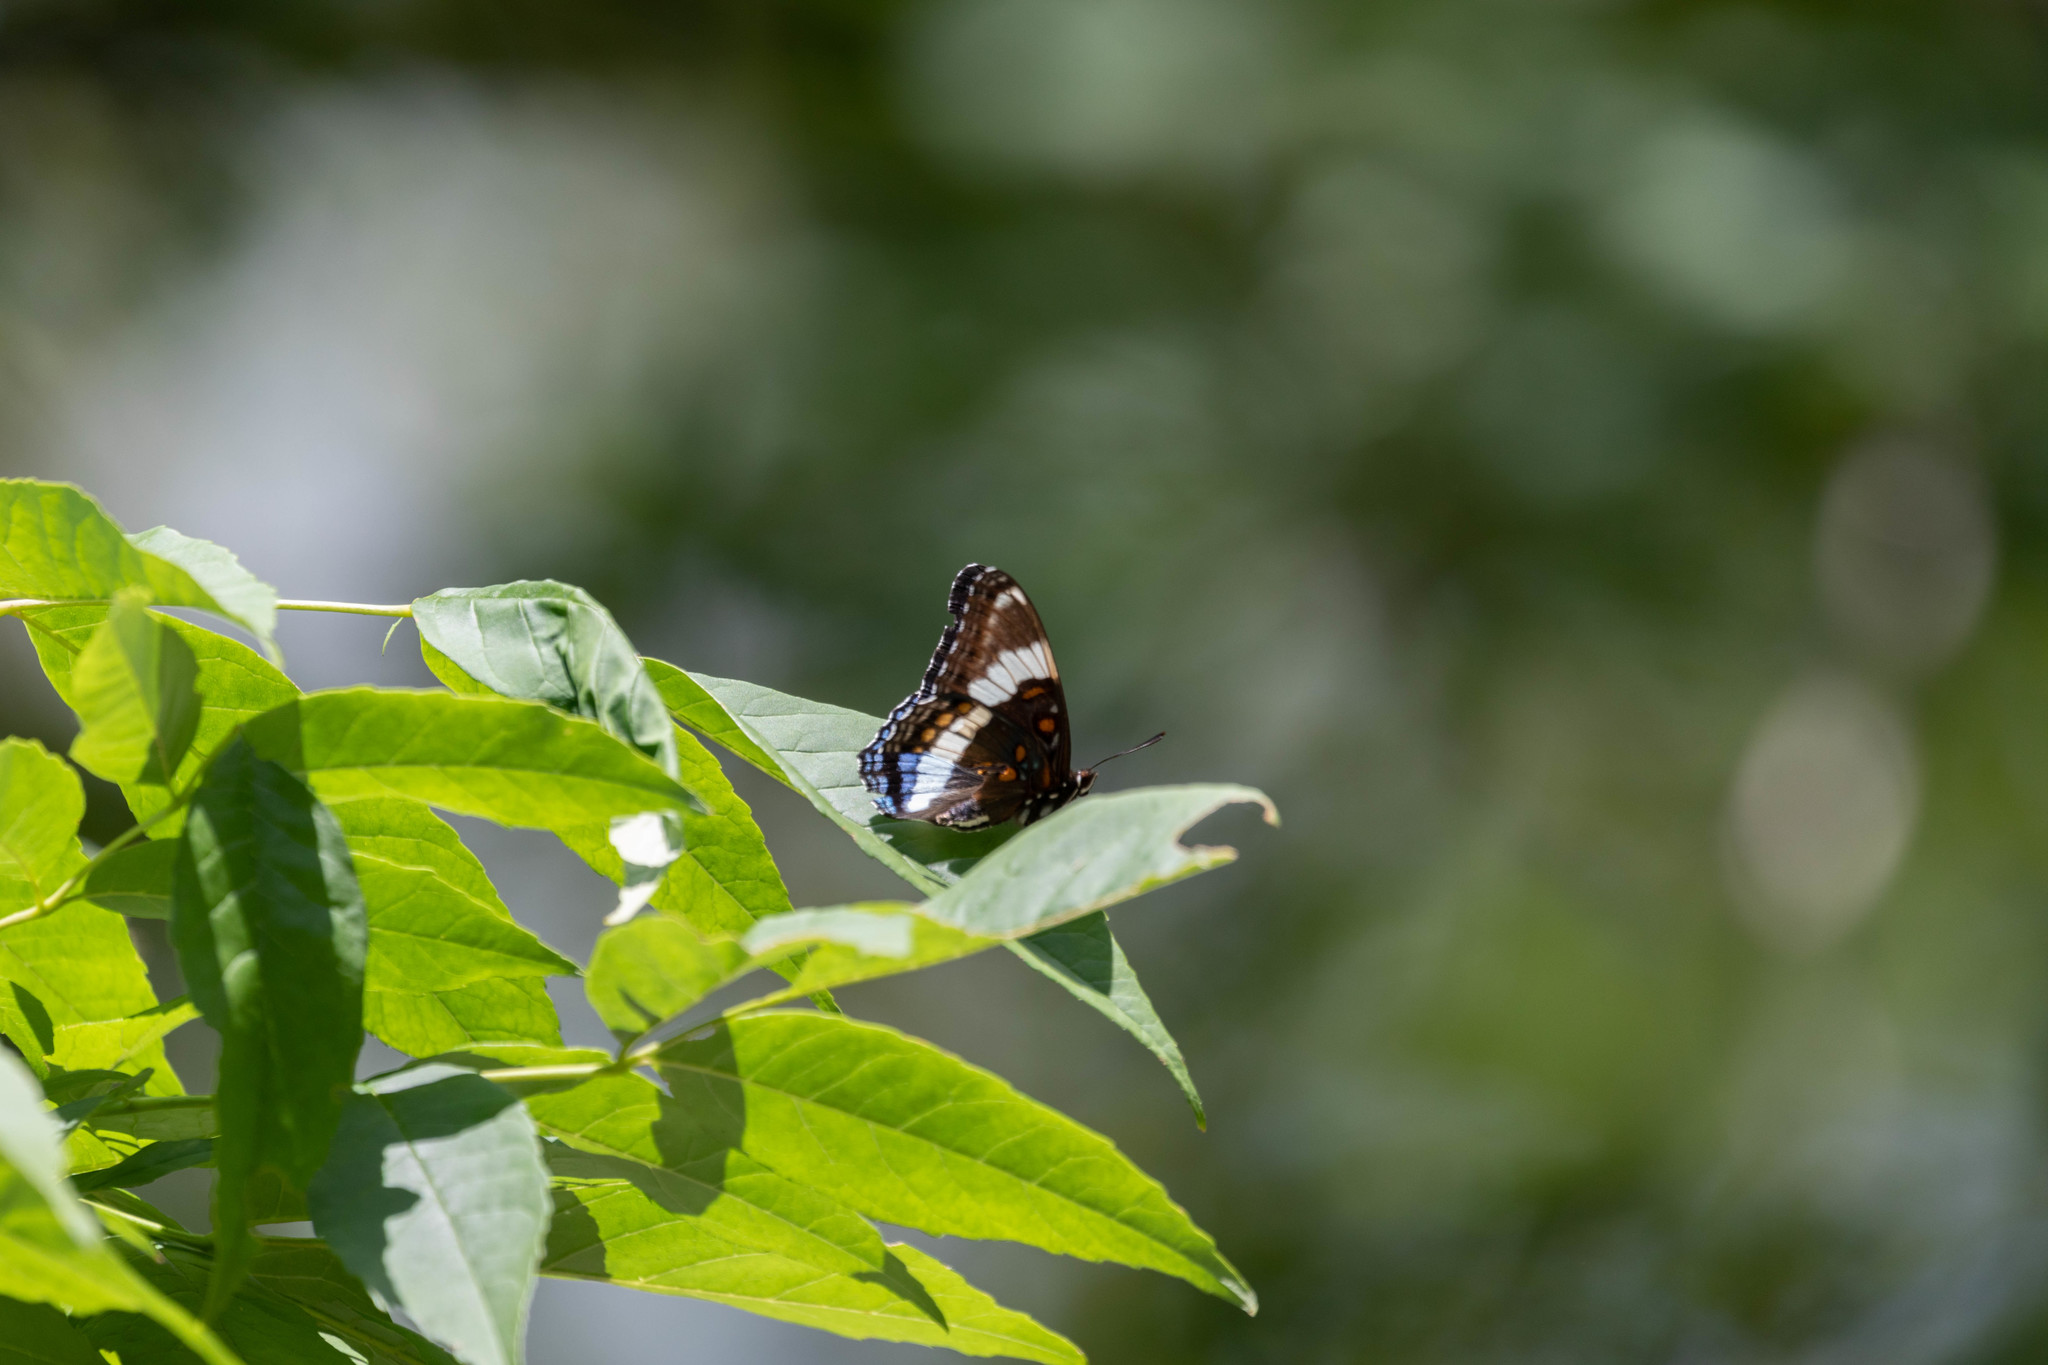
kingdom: Animalia
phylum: Arthropoda
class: Insecta
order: Lepidoptera
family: Nymphalidae
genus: Limenitis
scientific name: Limenitis arthemis
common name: Red-spotted admiral
